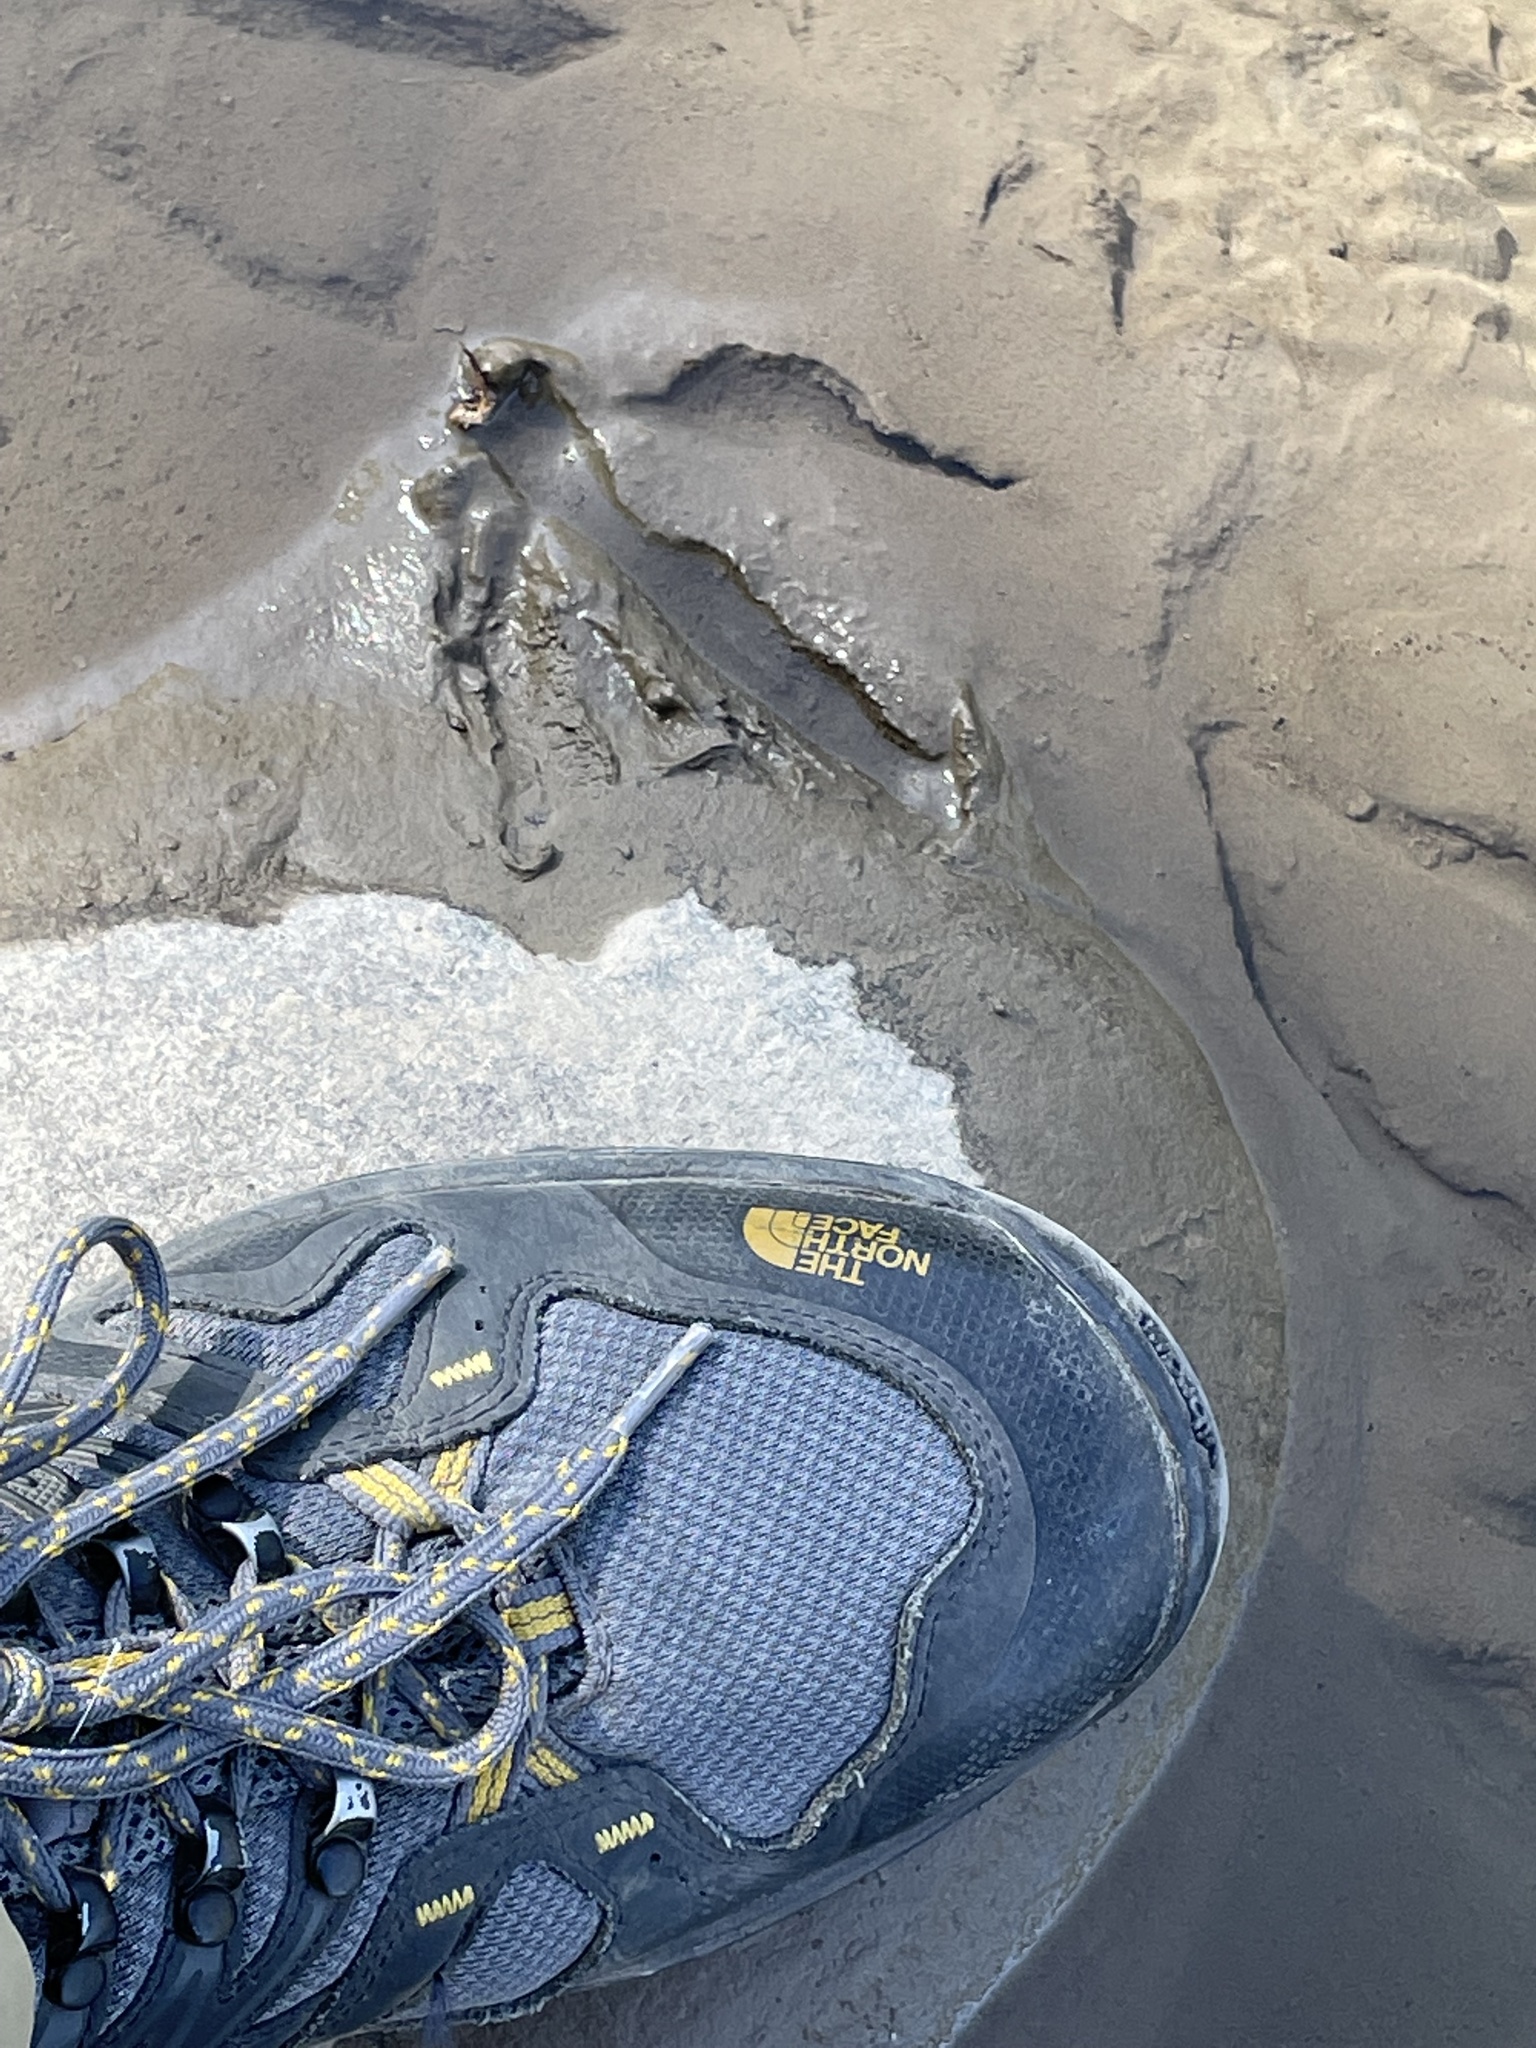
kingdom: Animalia
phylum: Chordata
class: Aves
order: Anseriformes
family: Anatidae
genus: Branta
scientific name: Branta canadensis
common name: Canada goose
